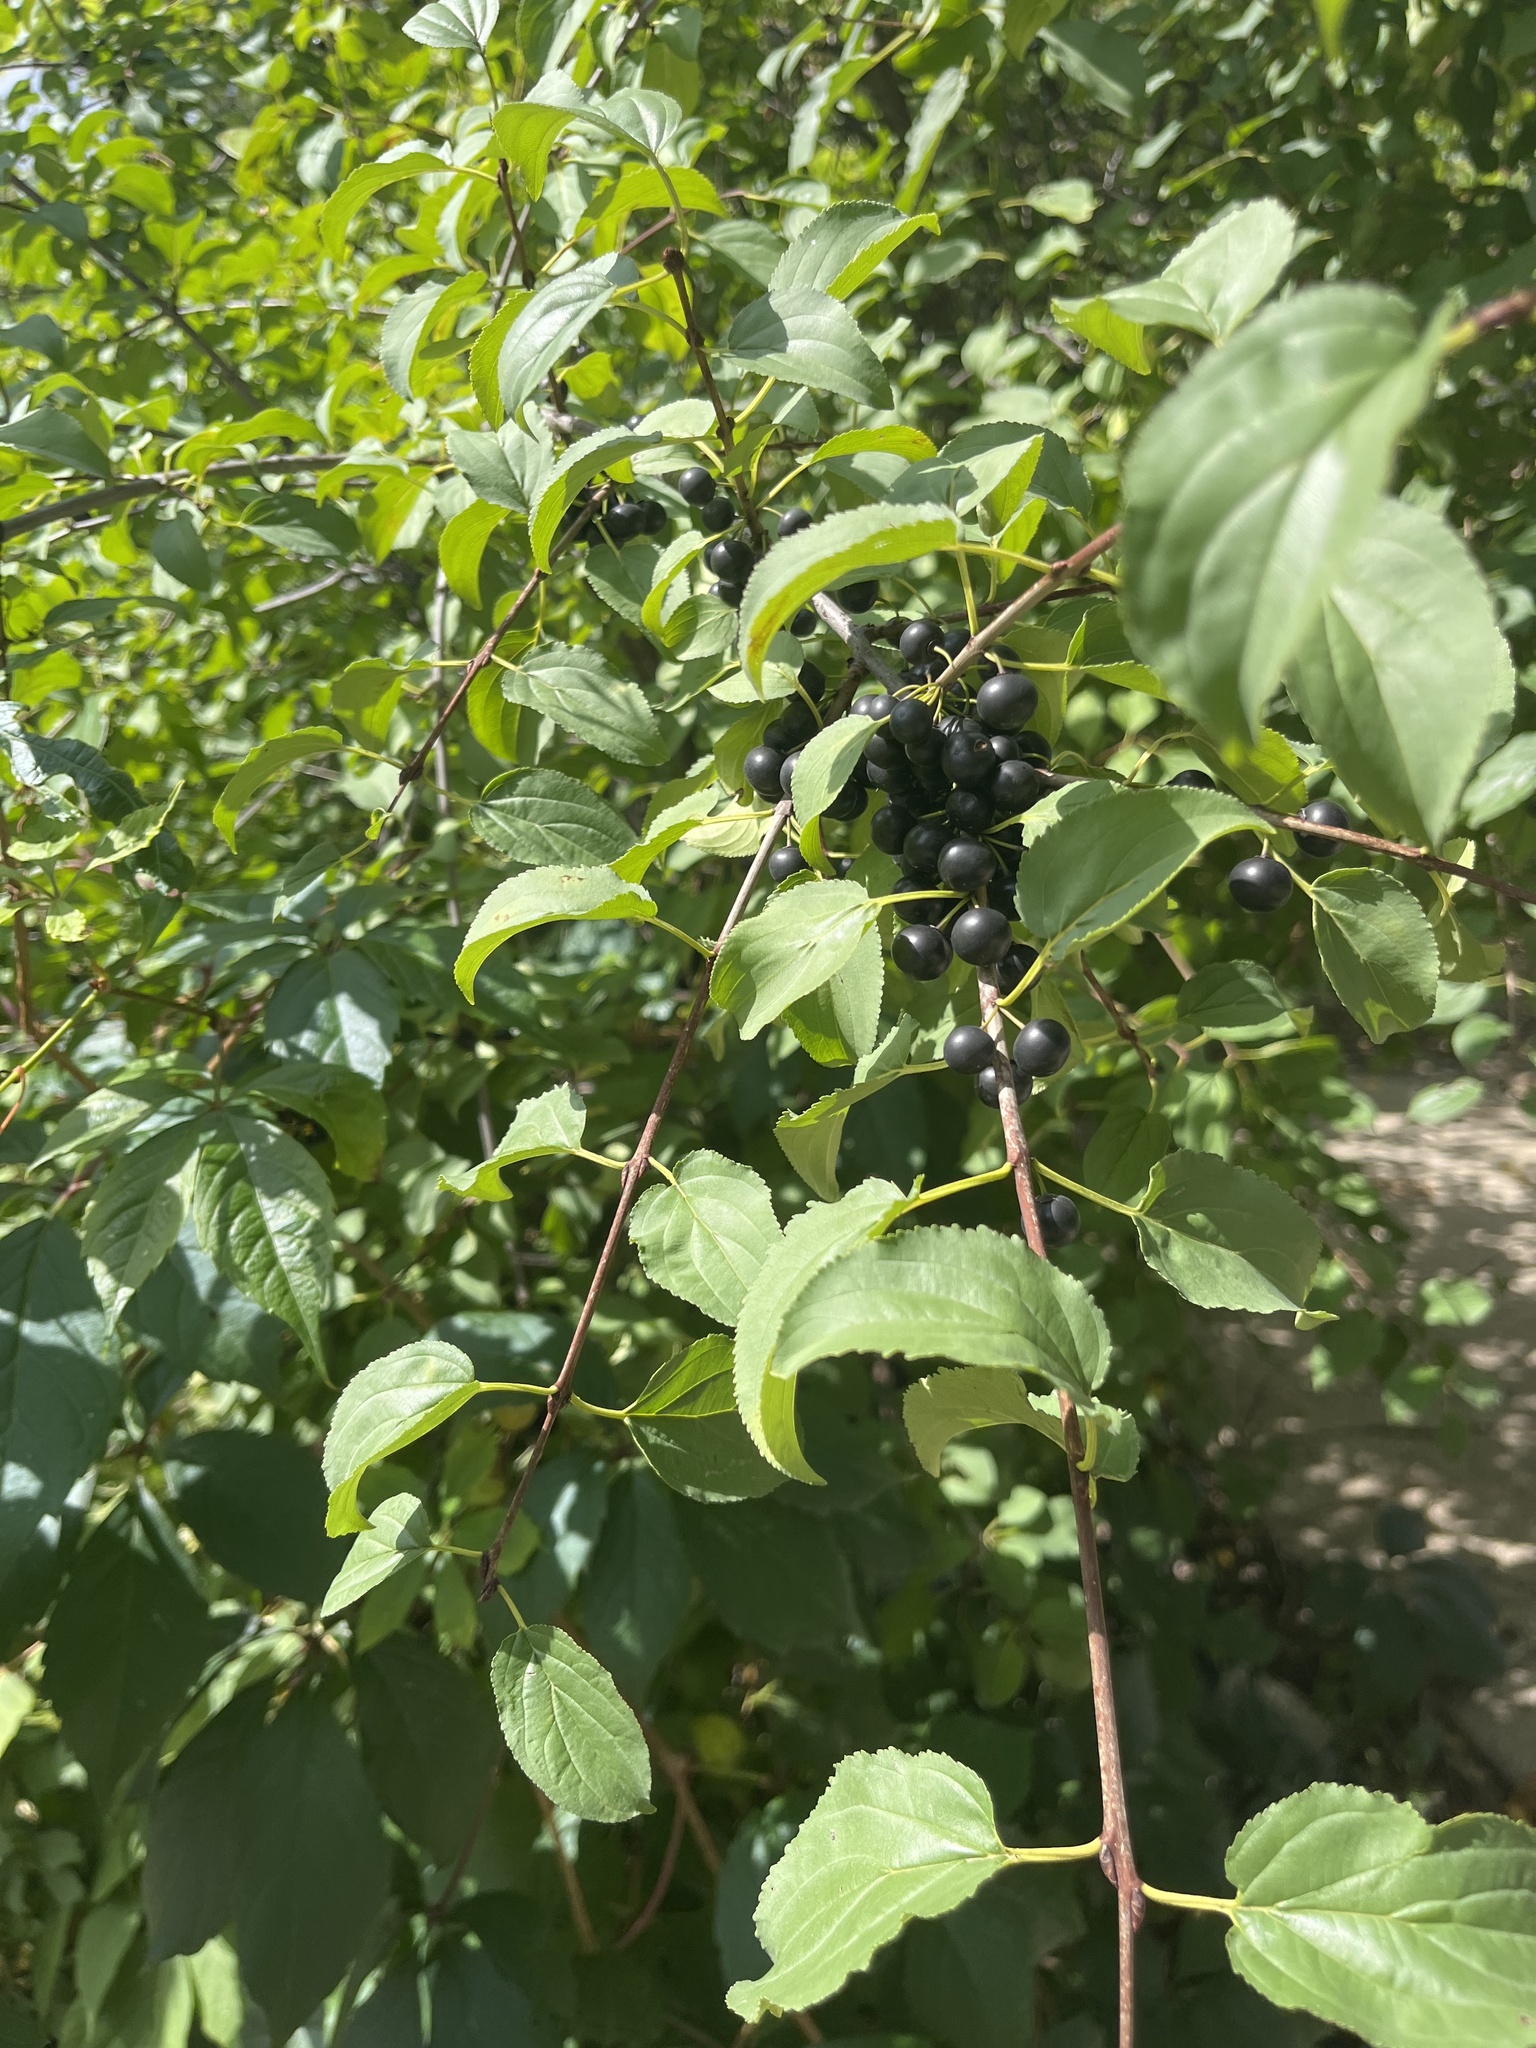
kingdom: Plantae
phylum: Tracheophyta
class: Magnoliopsida
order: Rosales
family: Rhamnaceae
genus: Rhamnus
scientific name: Rhamnus cathartica
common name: Common buckthorn
